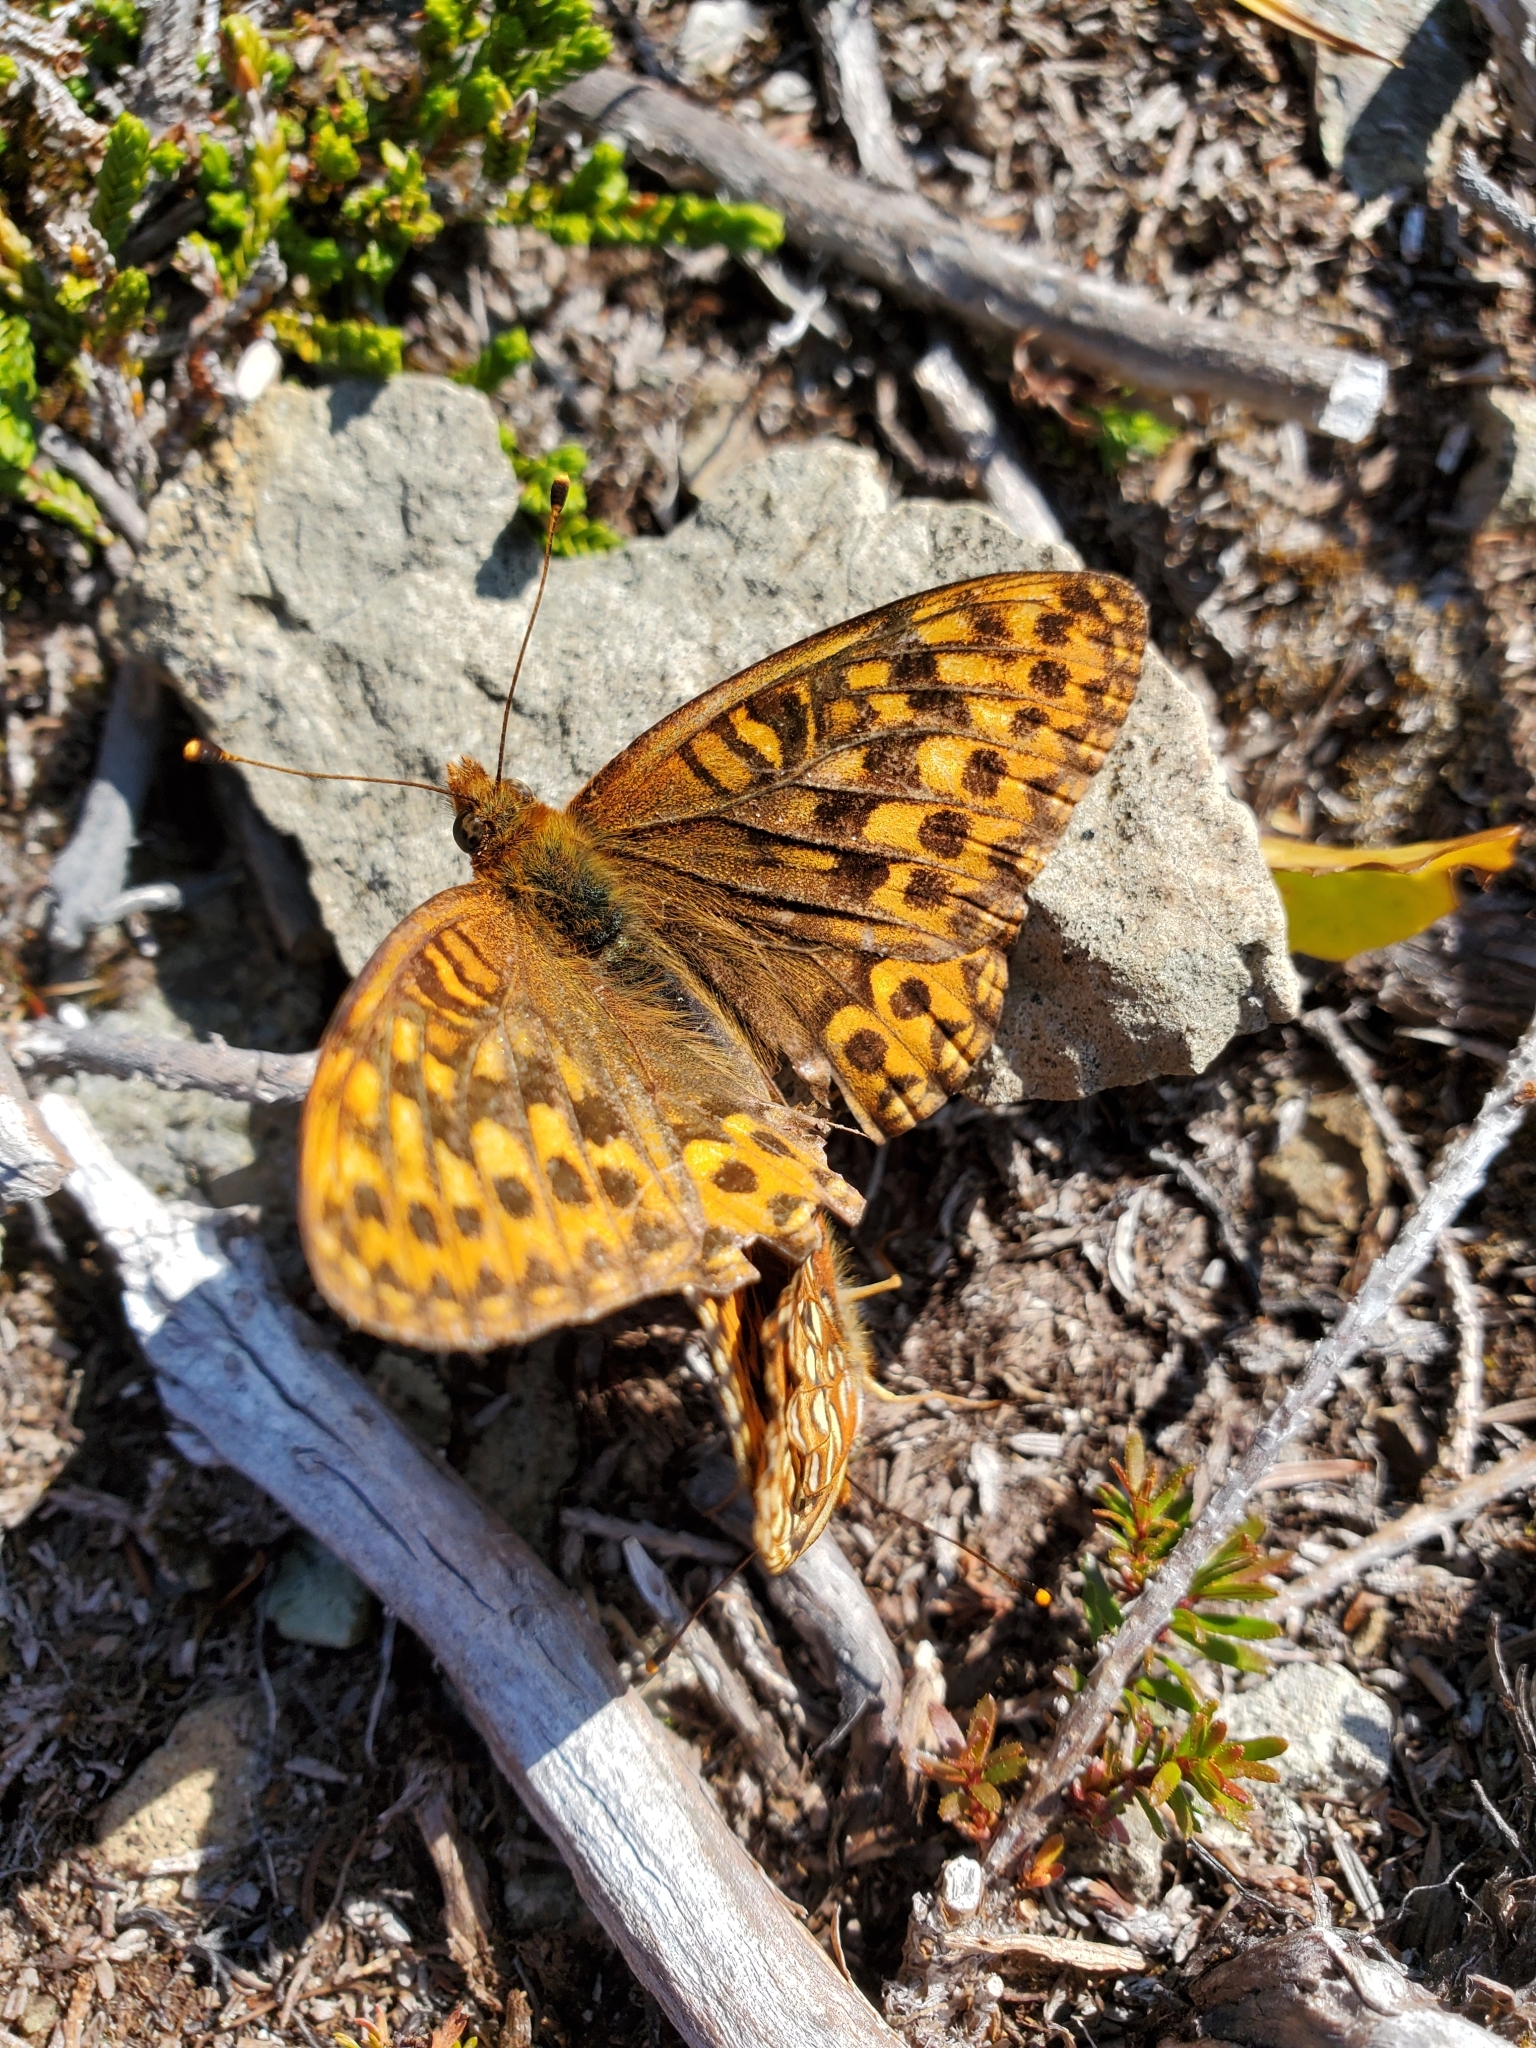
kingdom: Animalia
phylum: Arthropoda
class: Insecta
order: Lepidoptera
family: Nymphalidae
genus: Speyeria
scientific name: Speyeria hydaspe
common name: Hydaspe fritillary
